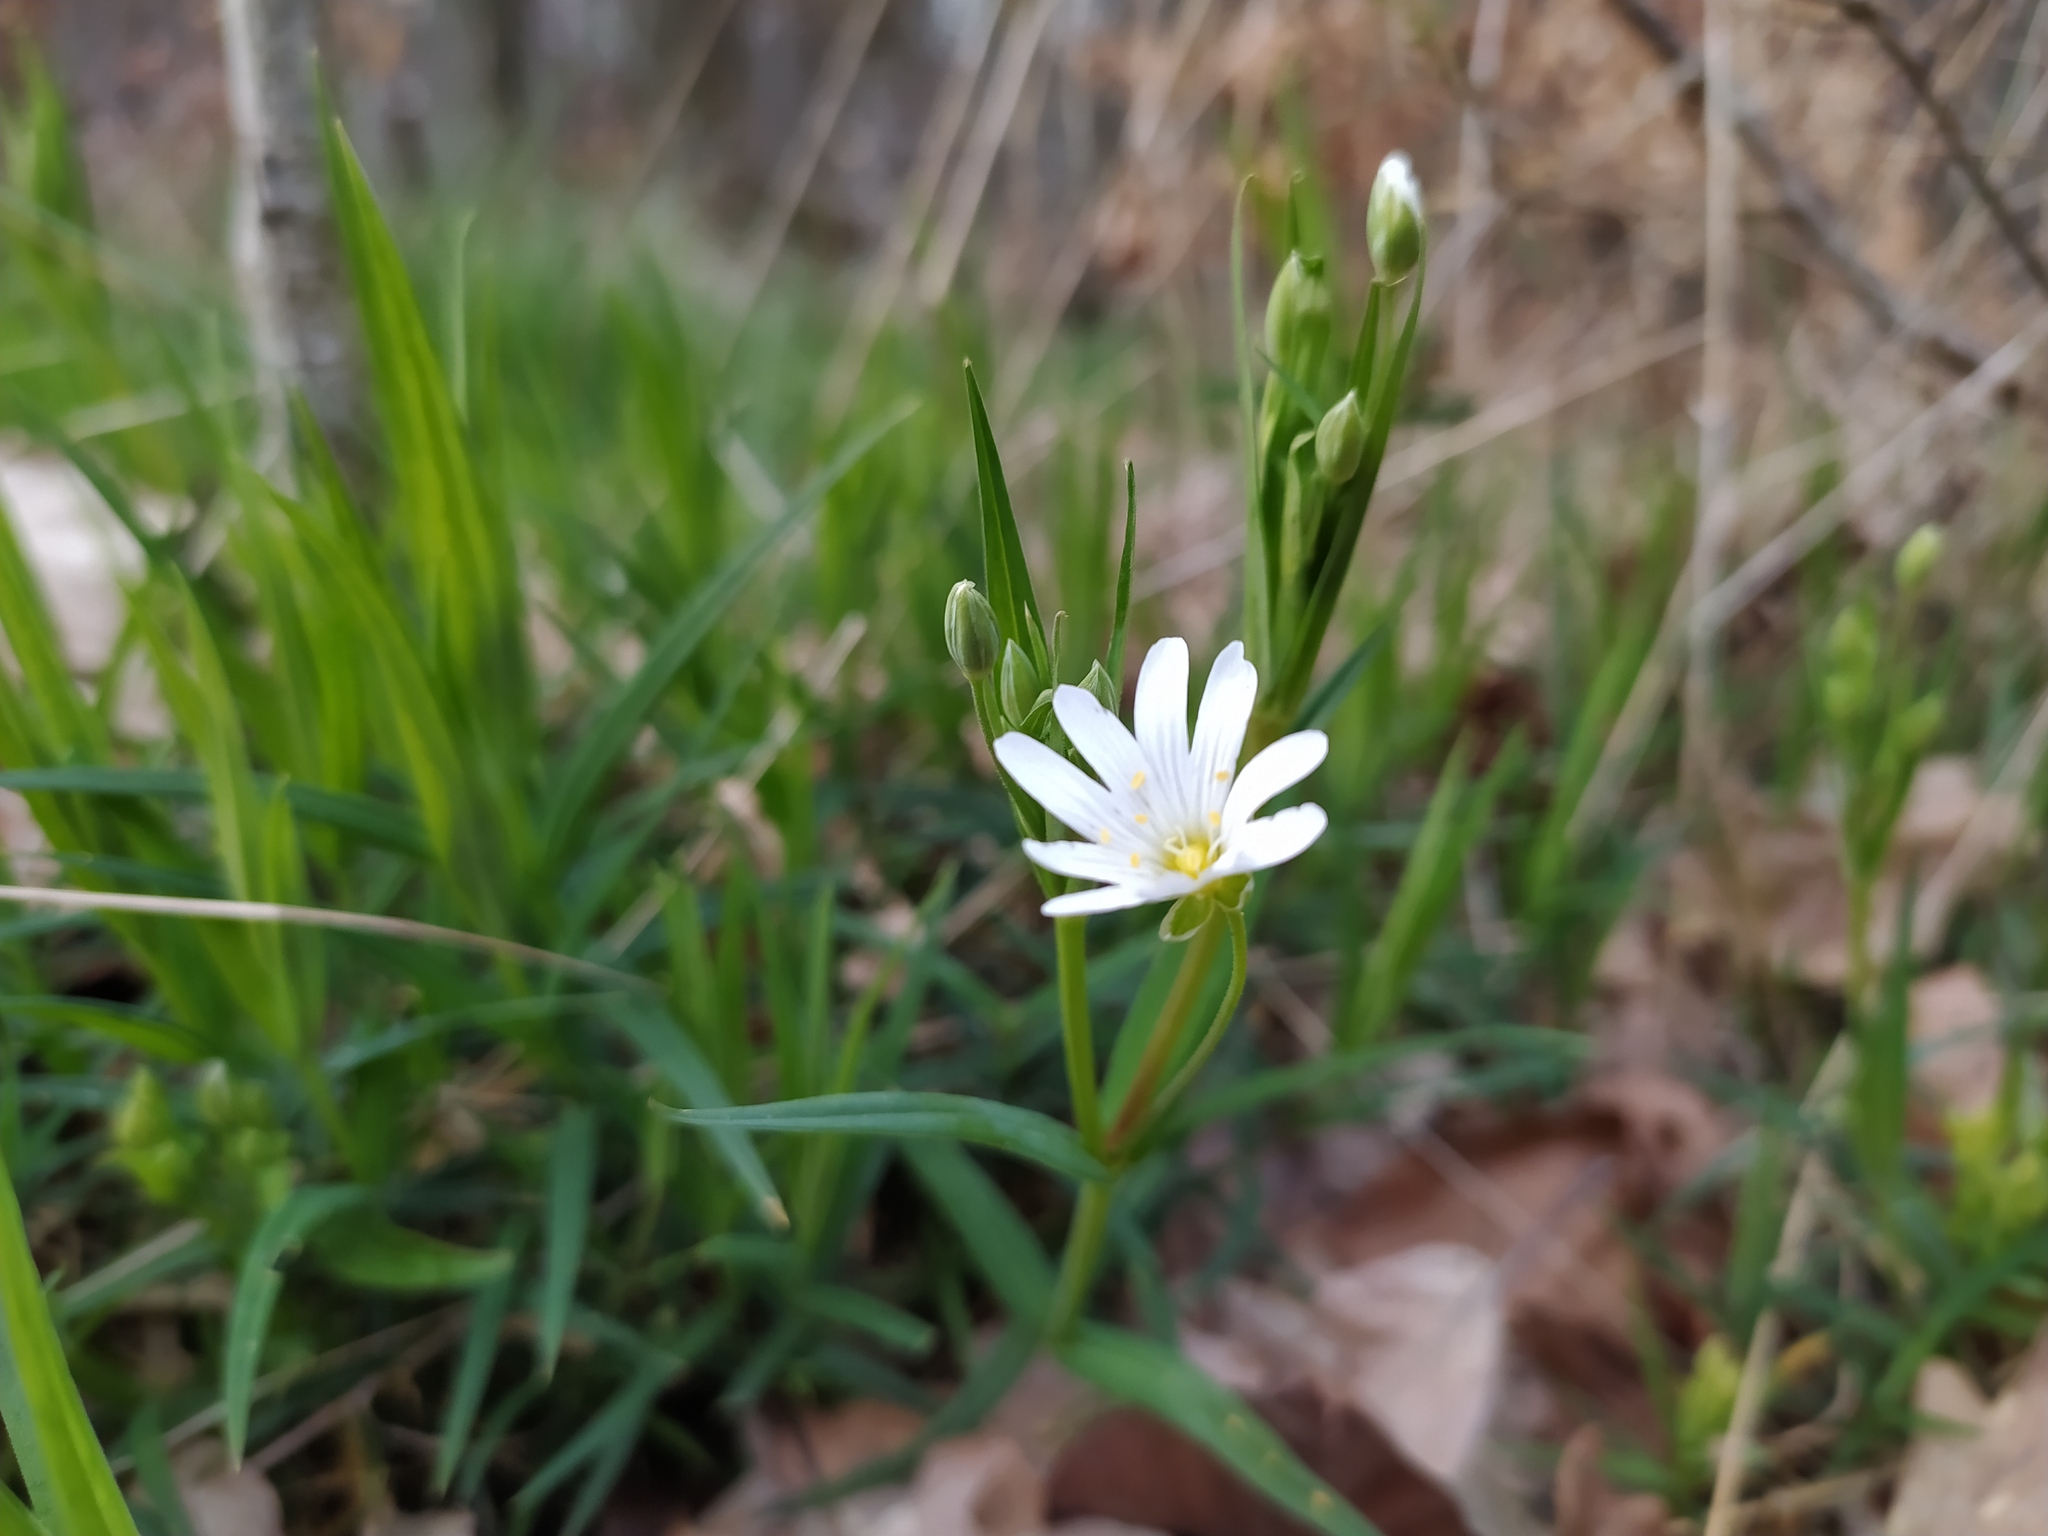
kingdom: Plantae
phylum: Tracheophyta
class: Magnoliopsida
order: Caryophyllales
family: Caryophyllaceae
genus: Rabelera
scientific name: Rabelera holostea
